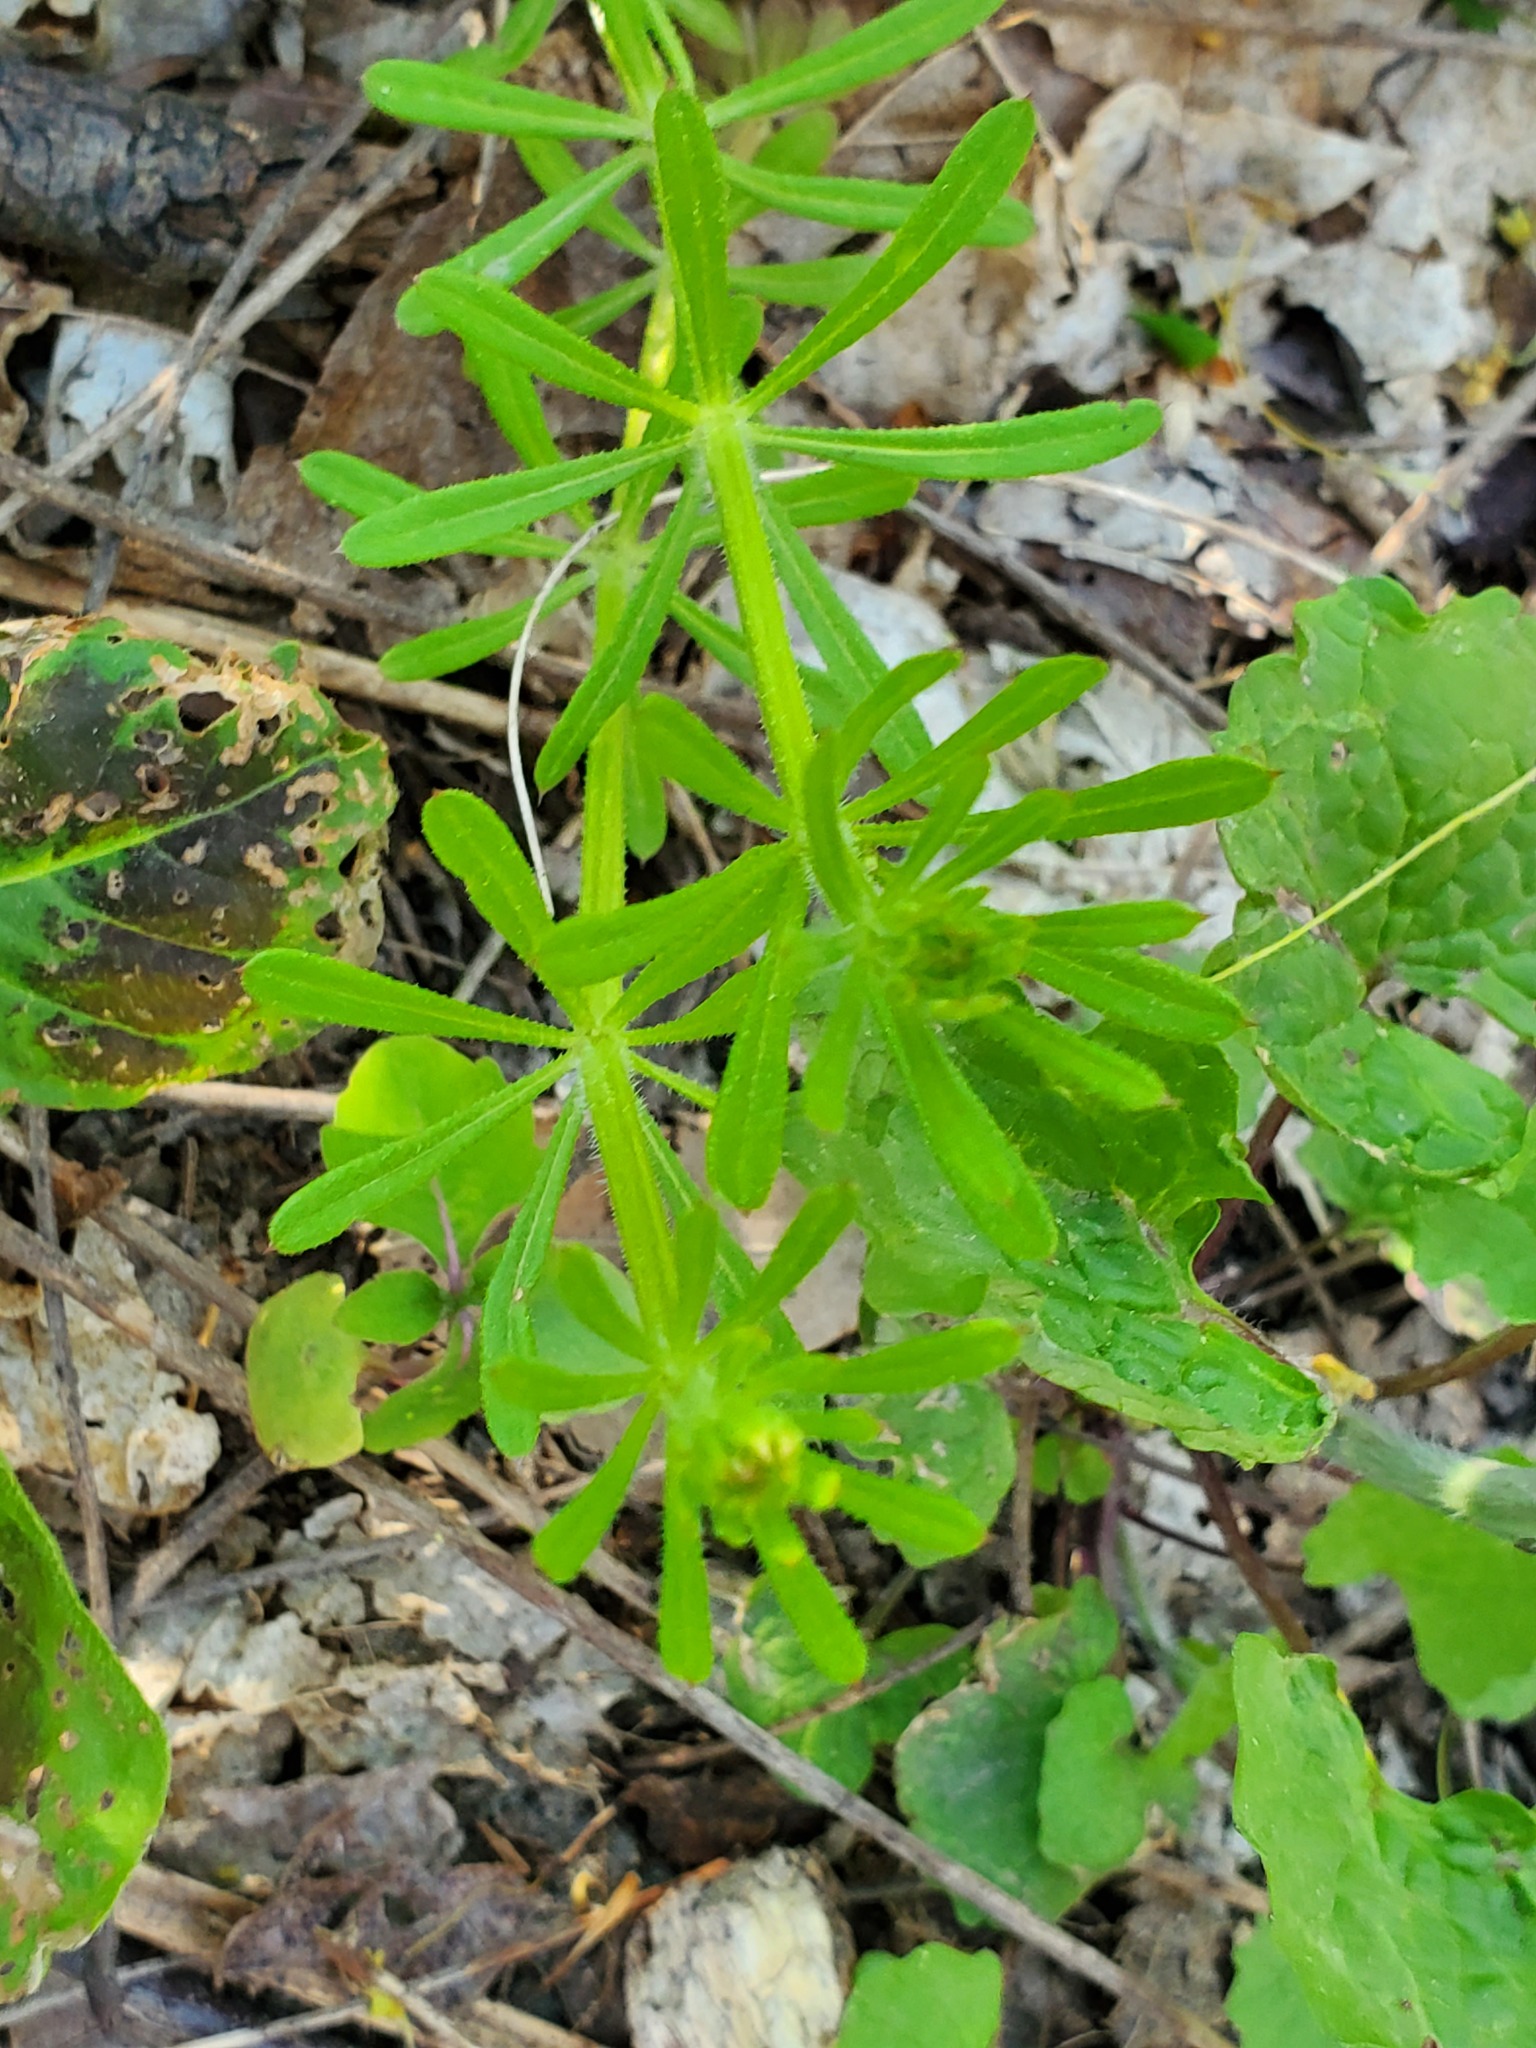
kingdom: Plantae
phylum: Tracheophyta
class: Magnoliopsida
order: Gentianales
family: Rubiaceae
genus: Galium
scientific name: Galium aparine
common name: Cleavers
